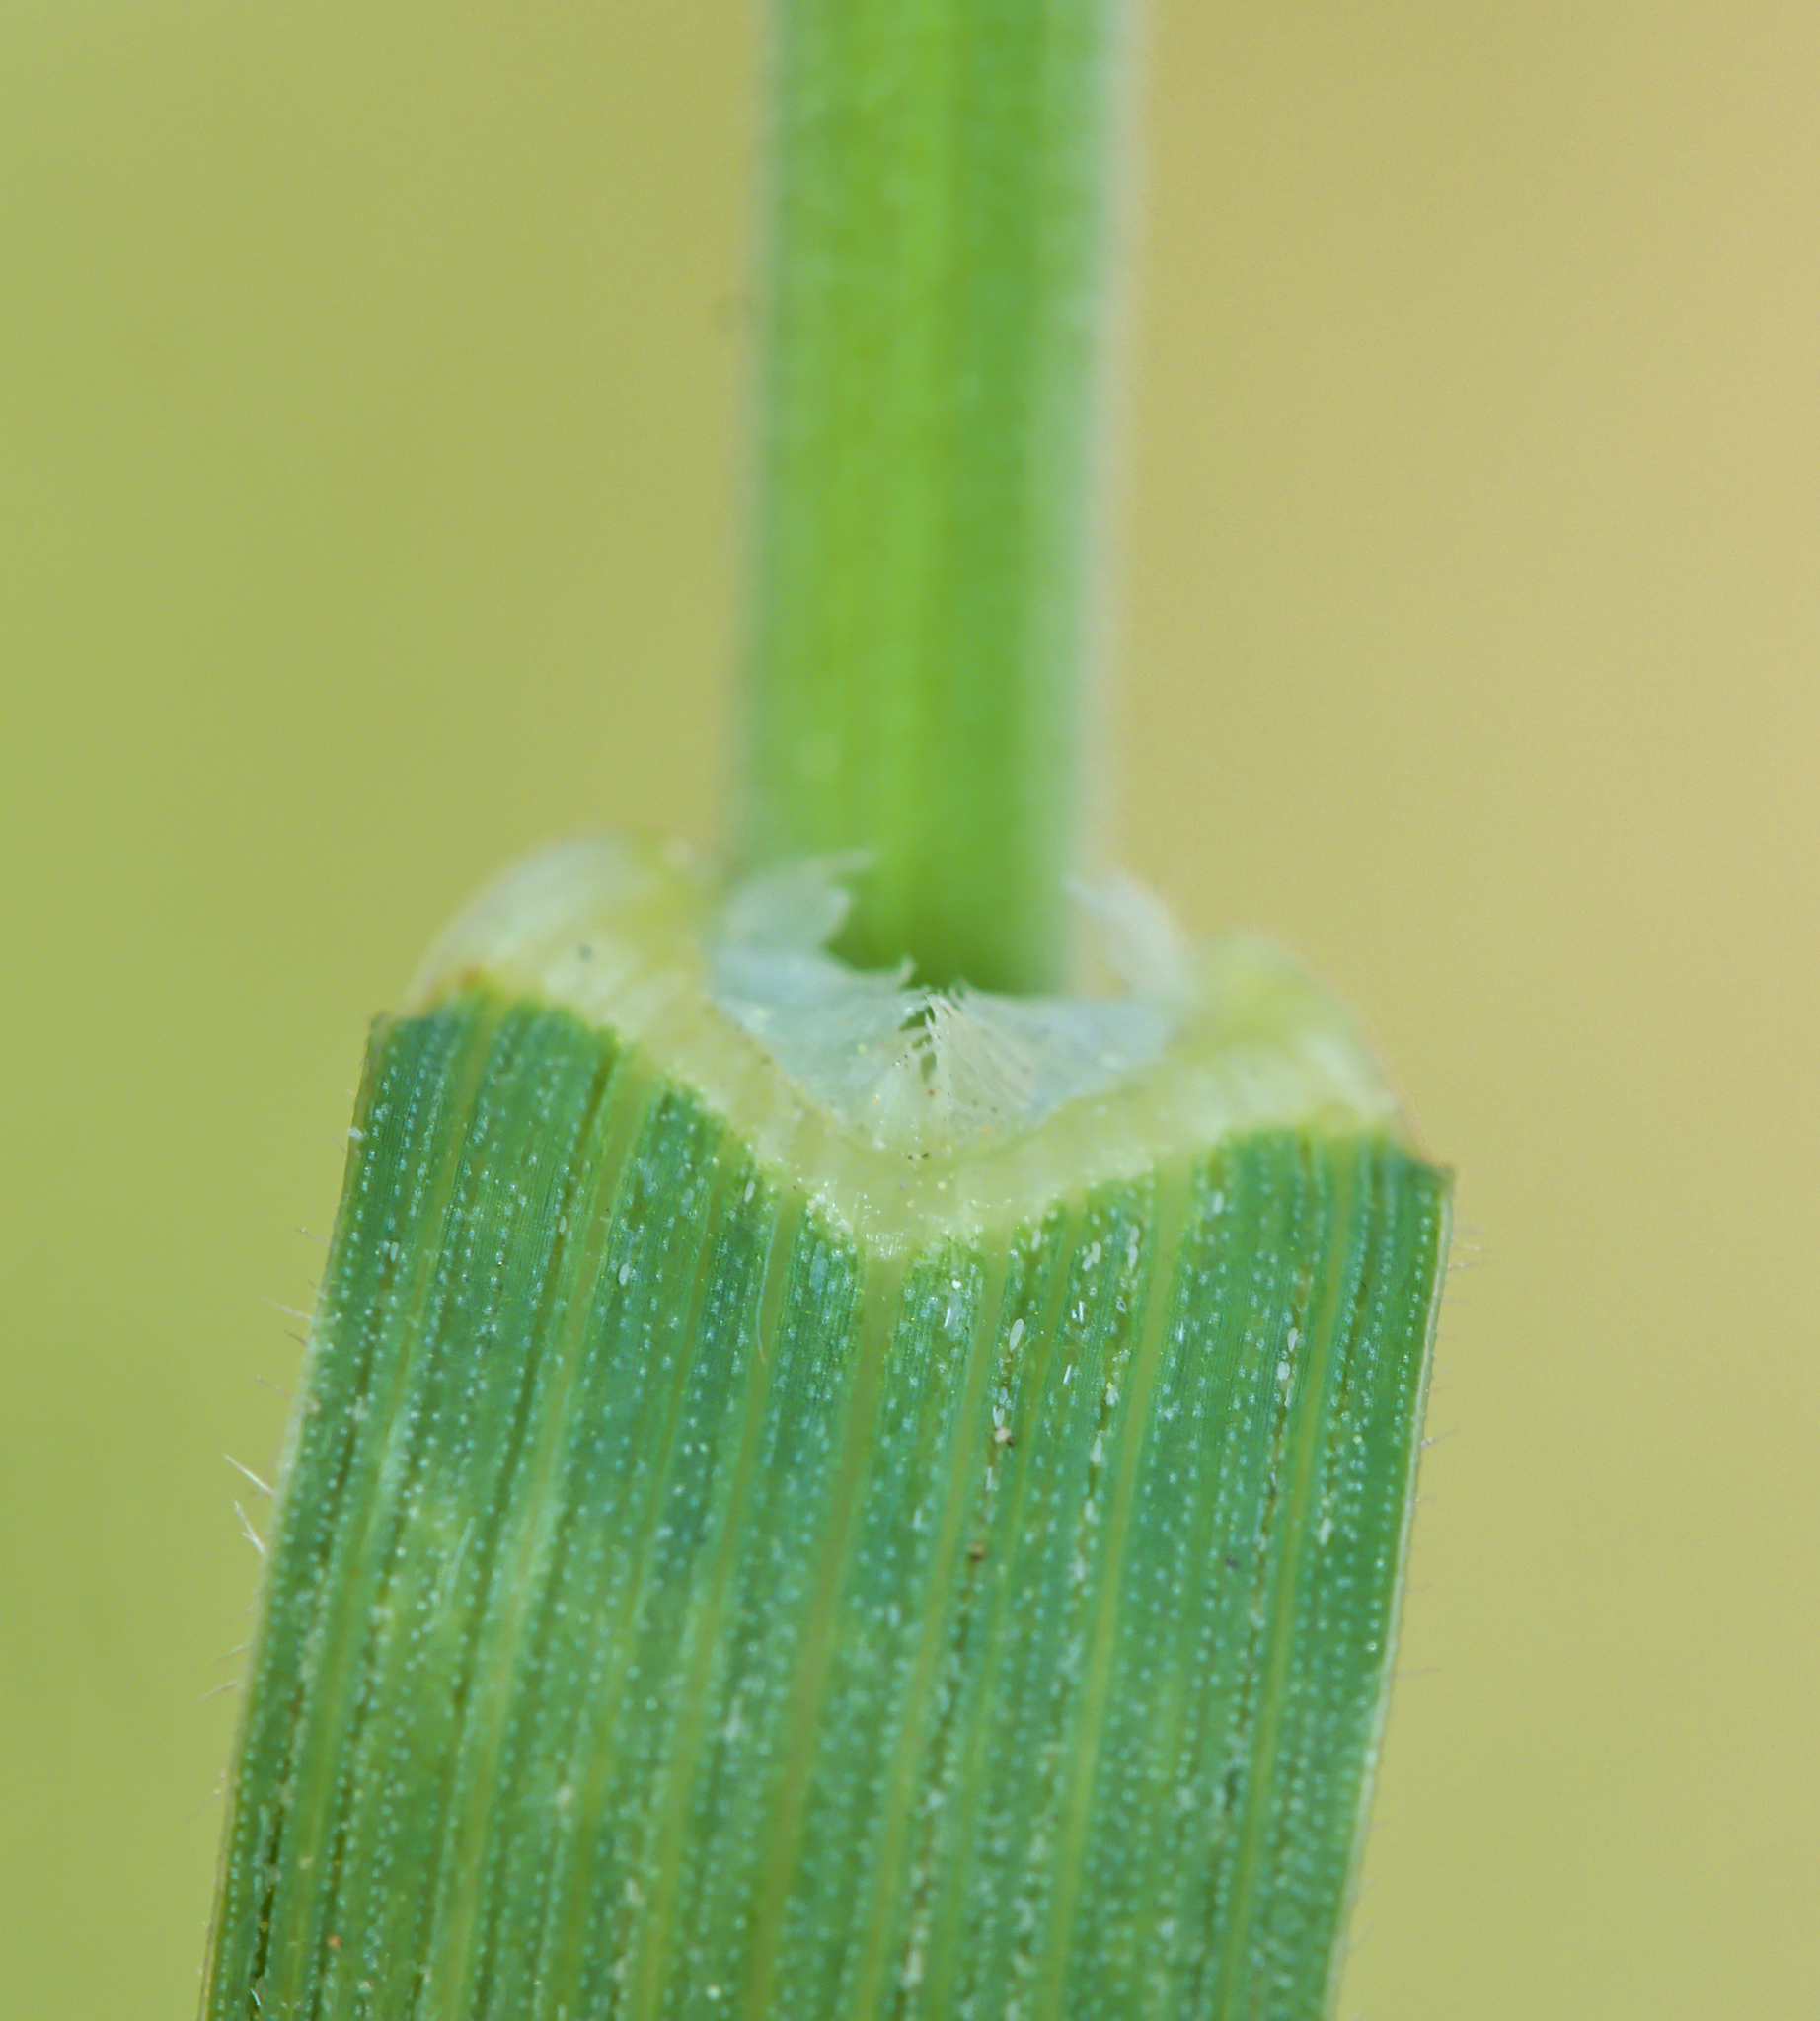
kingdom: Plantae
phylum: Tracheophyta
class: Liliopsida
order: Poales
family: Poaceae
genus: Bromus
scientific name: Bromus hordeaceus
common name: Soft brome
